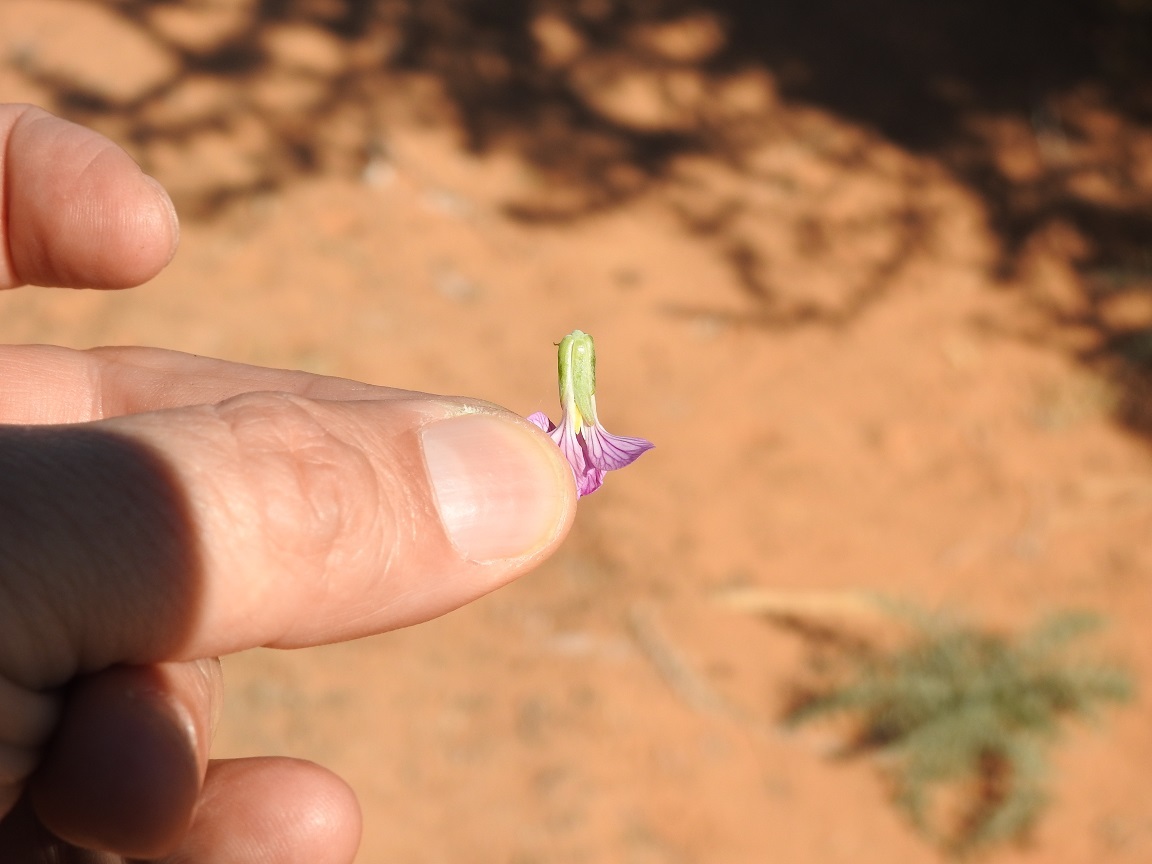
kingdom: Plantae
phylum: Tracheophyta
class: Magnoliopsida
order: Brassicales
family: Brassicaceae
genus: Zilla
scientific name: Zilla spinosa
